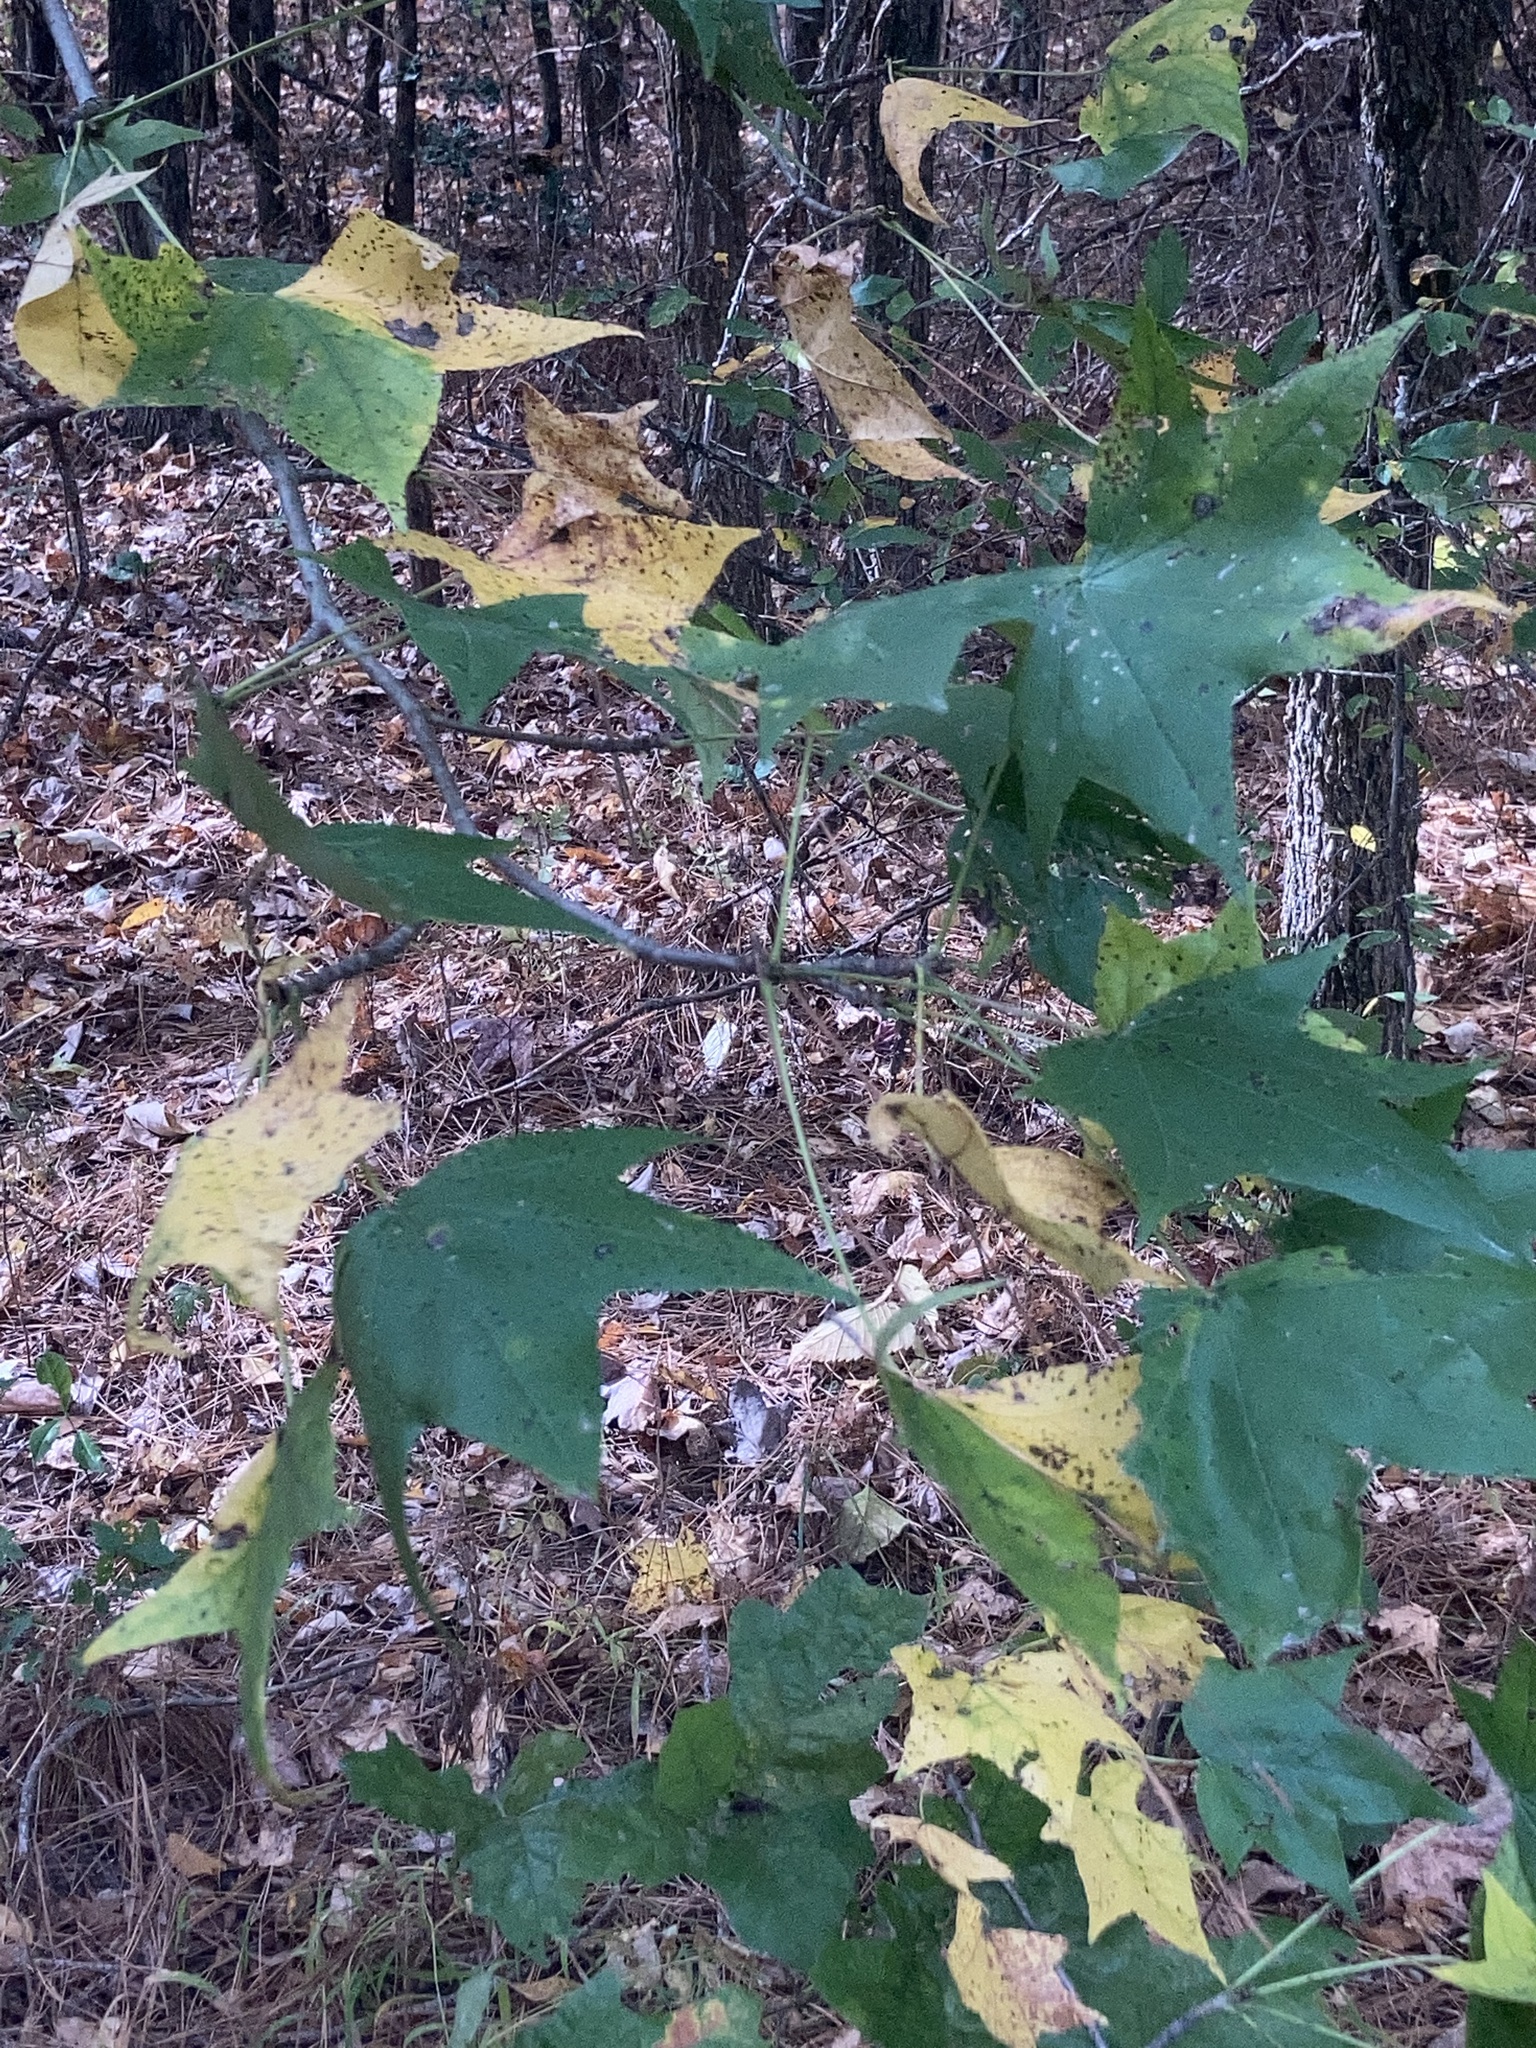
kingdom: Plantae
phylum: Tracheophyta
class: Magnoliopsida
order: Saxifragales
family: Altingiaceae
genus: Liquidambar
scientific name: Liquidambar styraciflua
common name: Sweet gum
